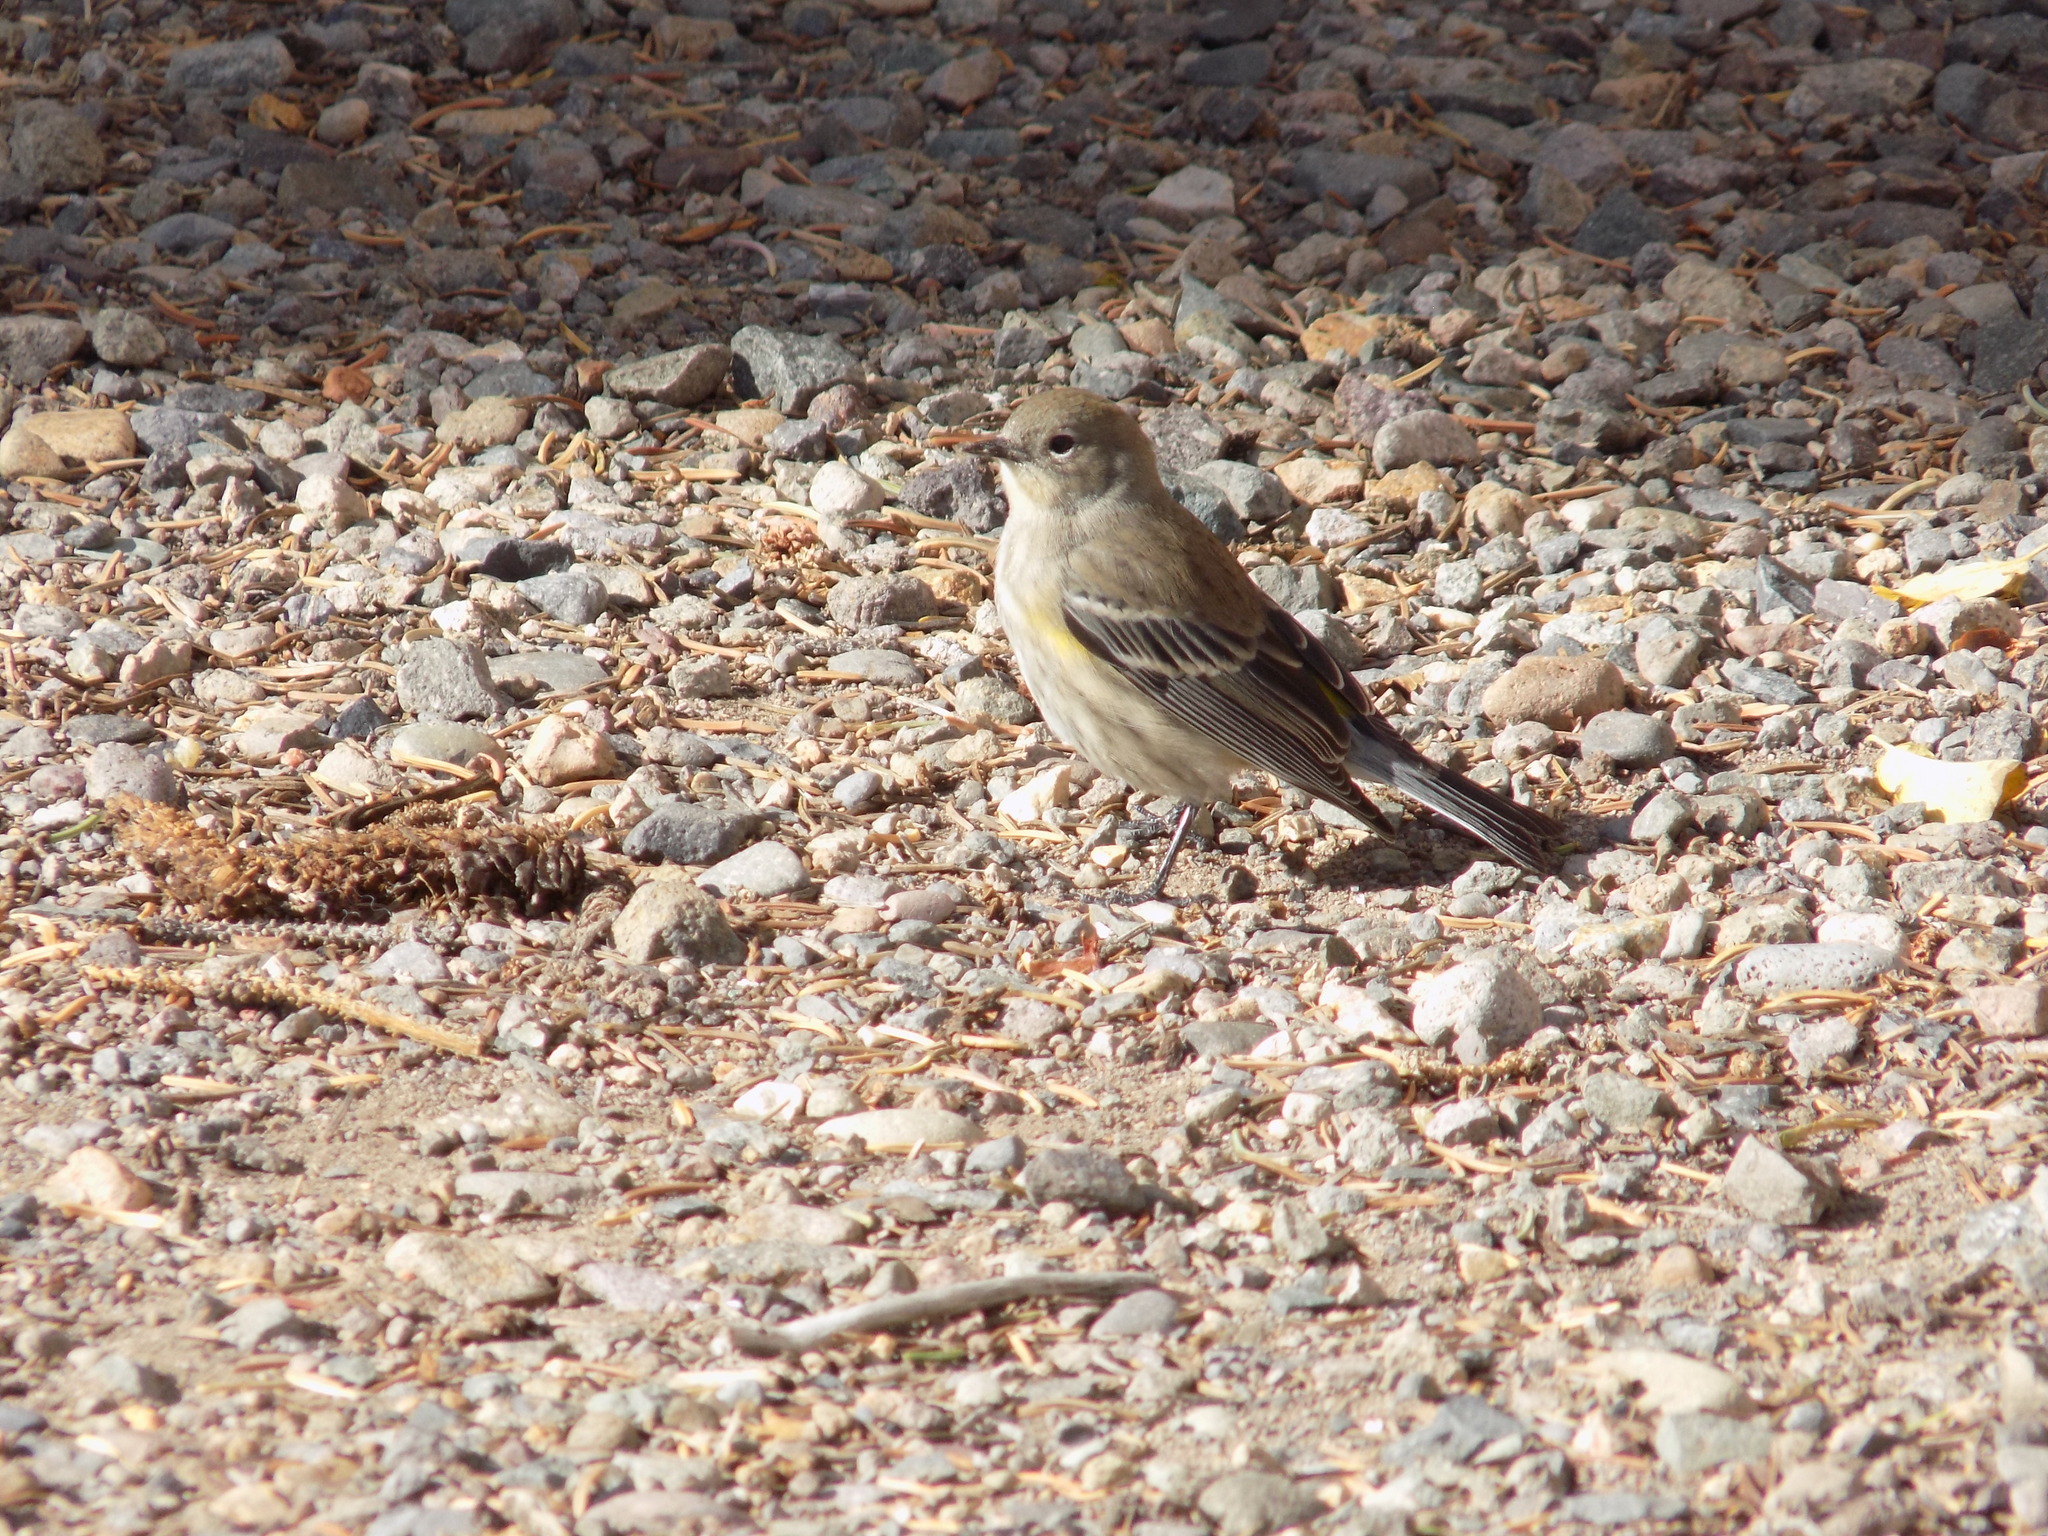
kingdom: Animalia
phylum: Chordata
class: Aves
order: Passeriformes
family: Parulidae
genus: Setophaga
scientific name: Setophaga coronata
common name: Myrtle warbler
